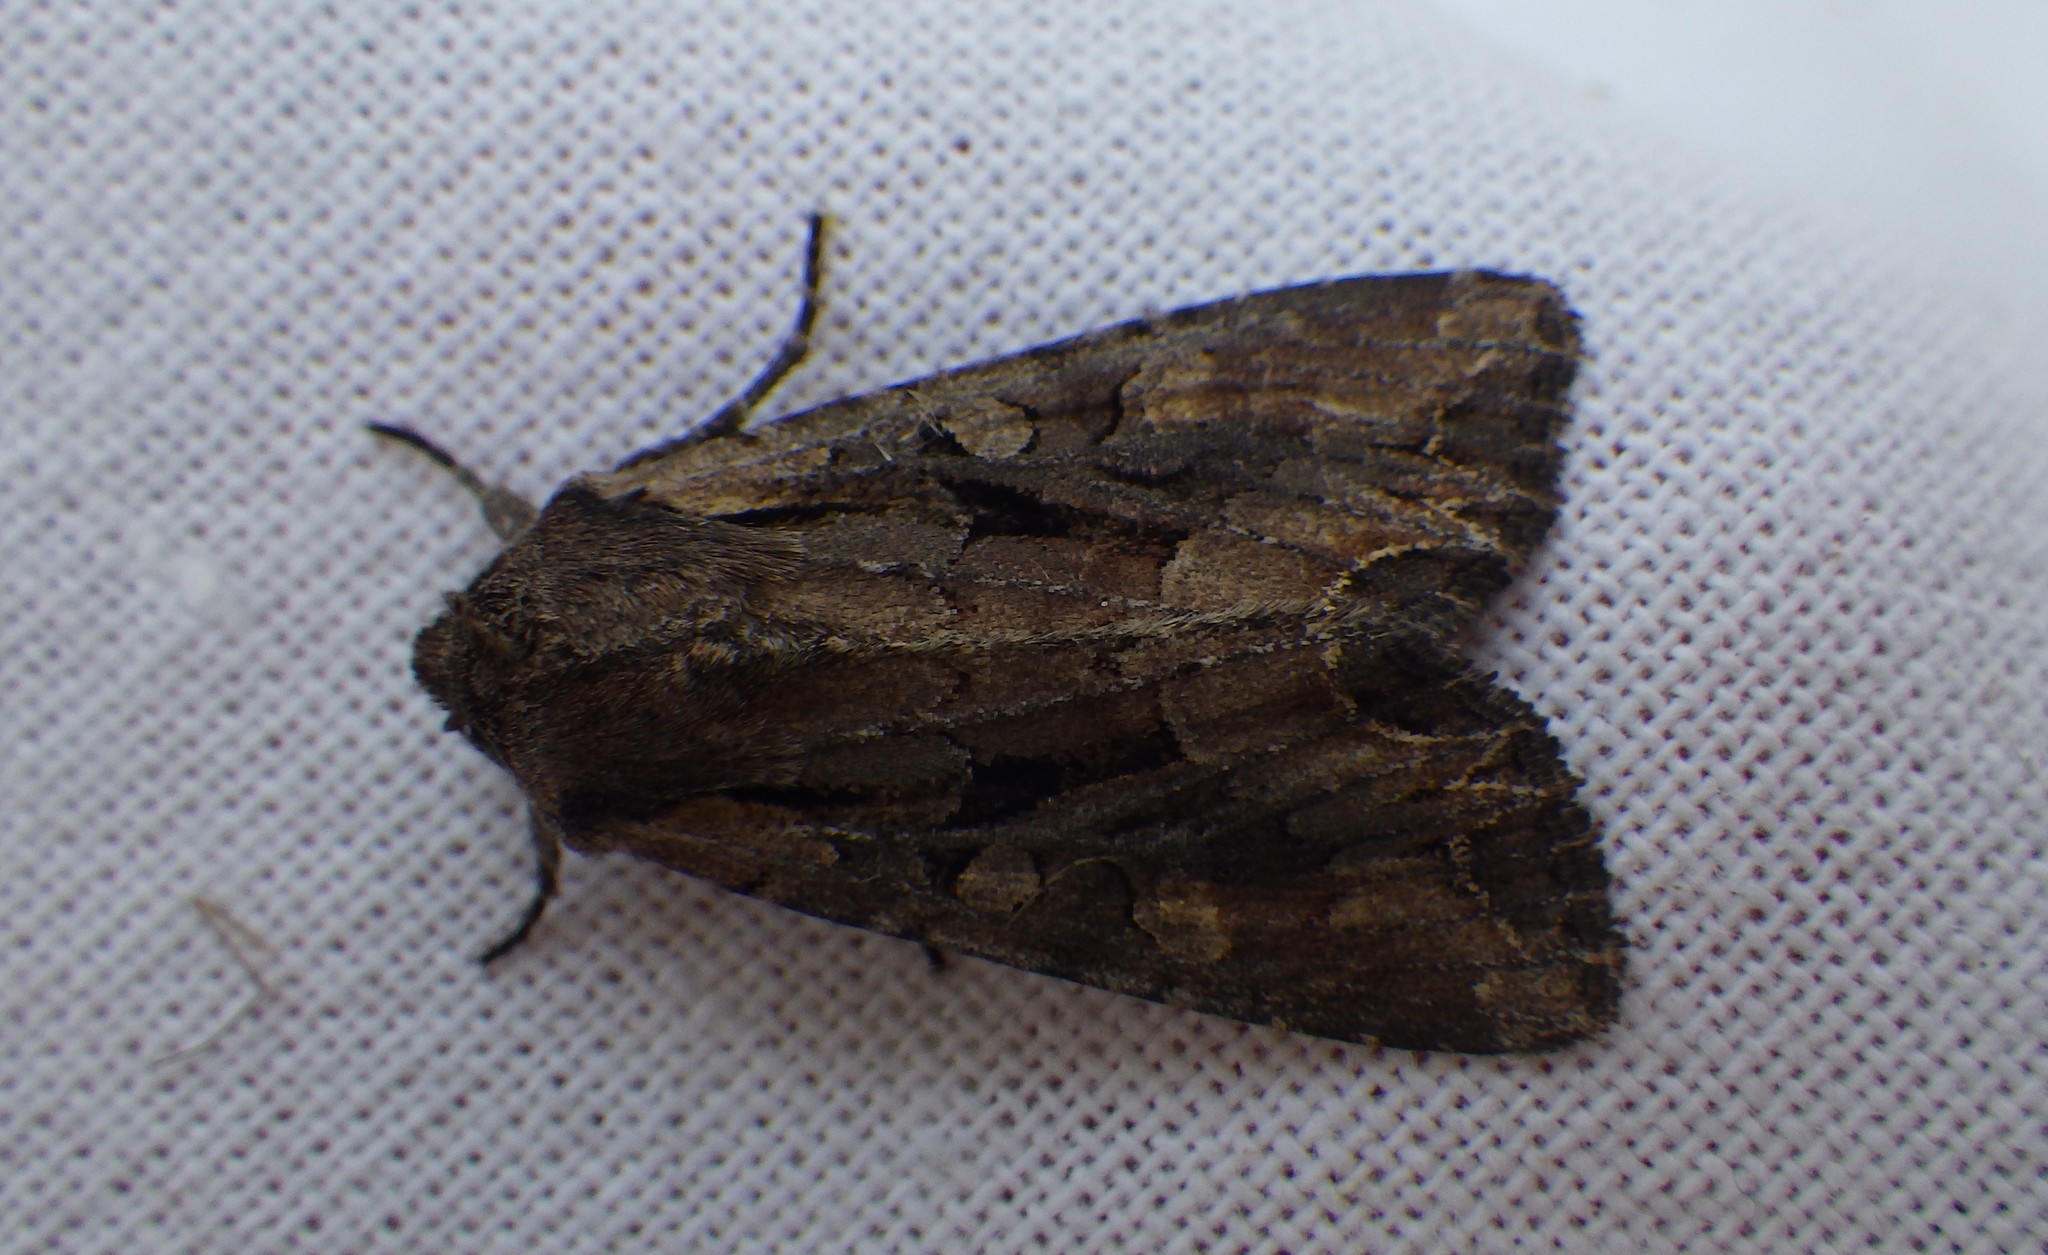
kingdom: Animalia
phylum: Arthropoda
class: Insecta
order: Lepidoptera
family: Noctuidae
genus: Lacanobia
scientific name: Lacanobia suasa
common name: Dog's tooth
